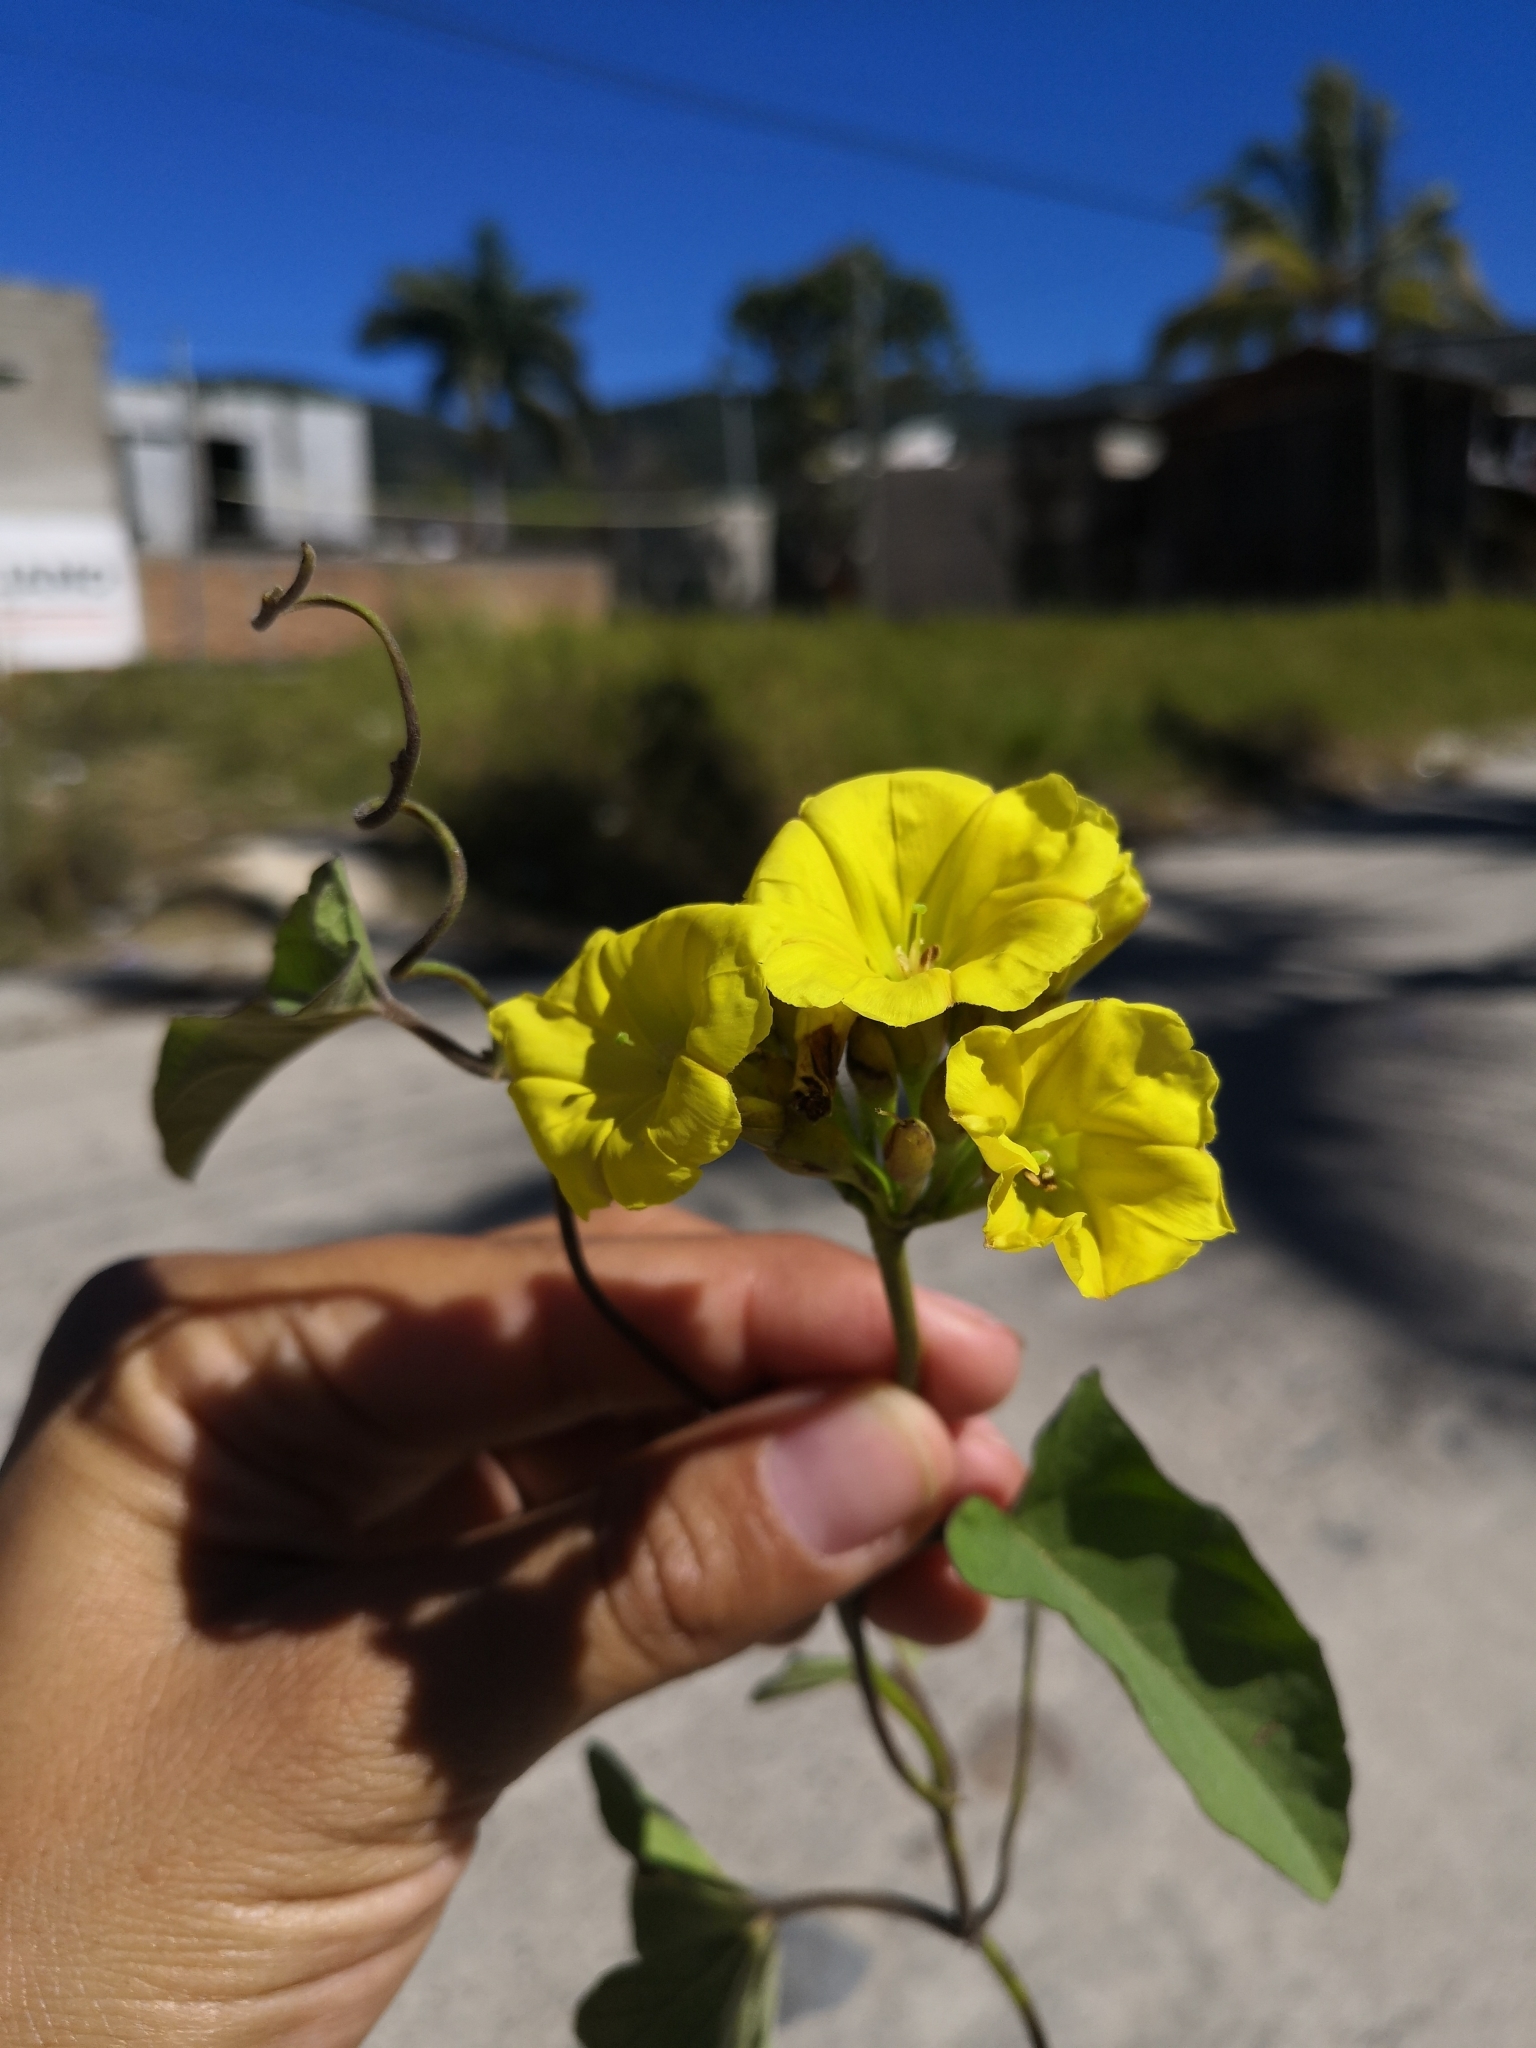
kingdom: Plantae
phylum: Tracheophyta
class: Magnoliopsida
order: Solanales
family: Convolvulaceae
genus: Camonea
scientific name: Camonea umbellata
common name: Hogvine
